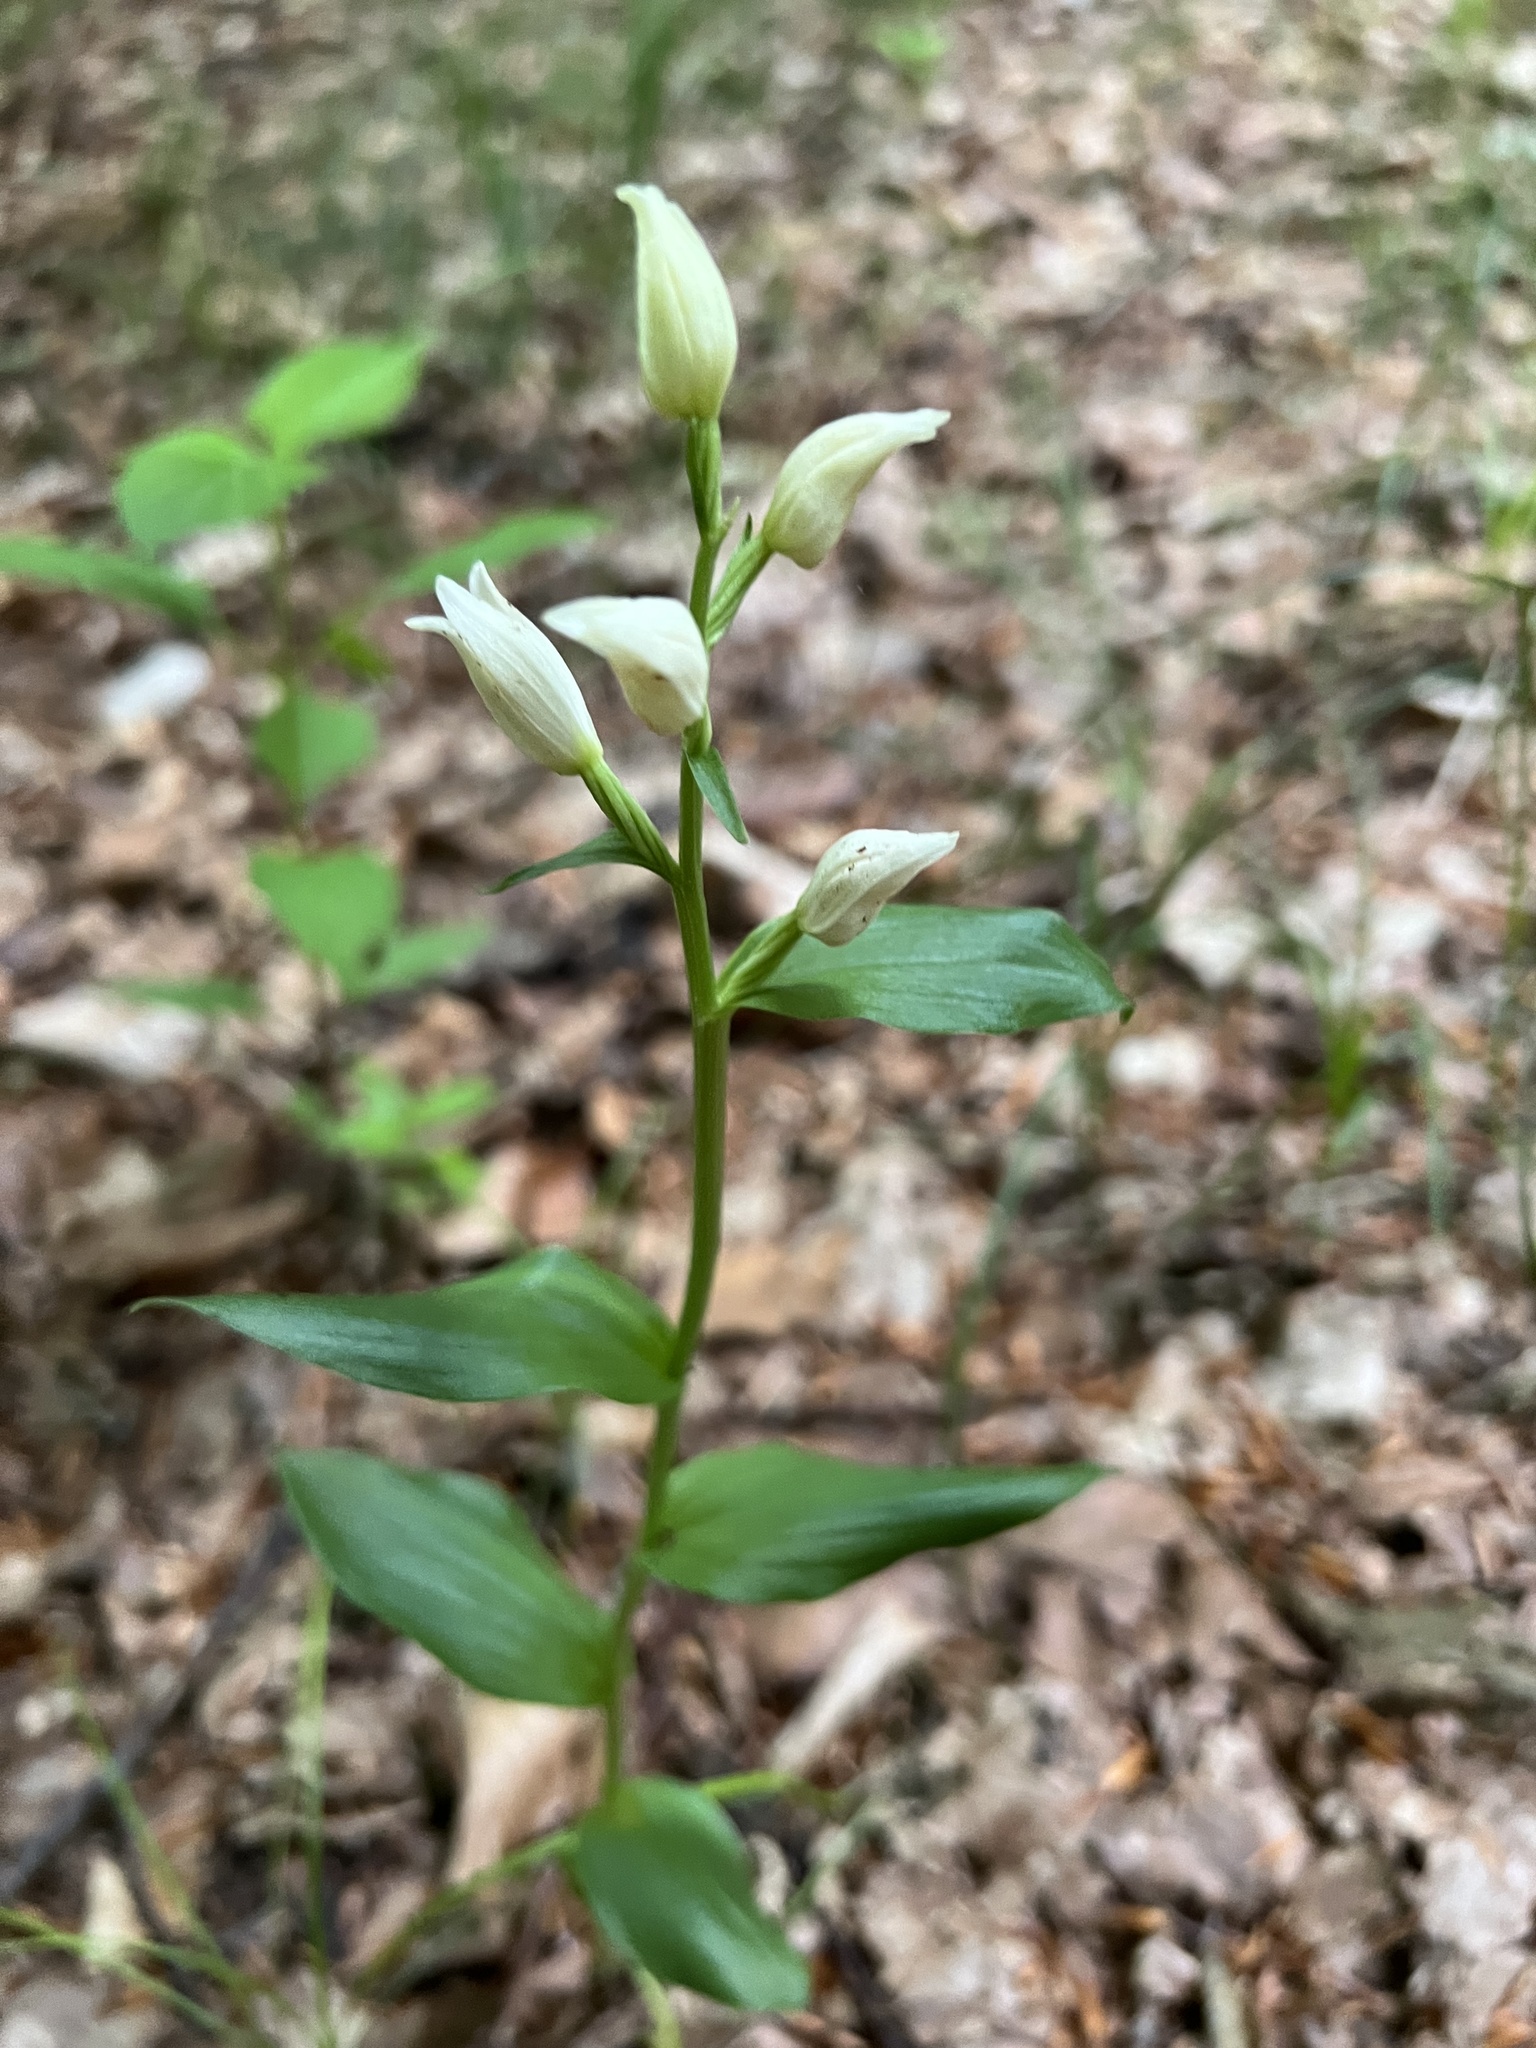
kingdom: Plantae
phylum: Tracheophyta
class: Liliopsida
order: Asparagales
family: Orchidaceae
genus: Cephalanthera
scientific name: Cephalanthera damasonium
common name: White helleborine
